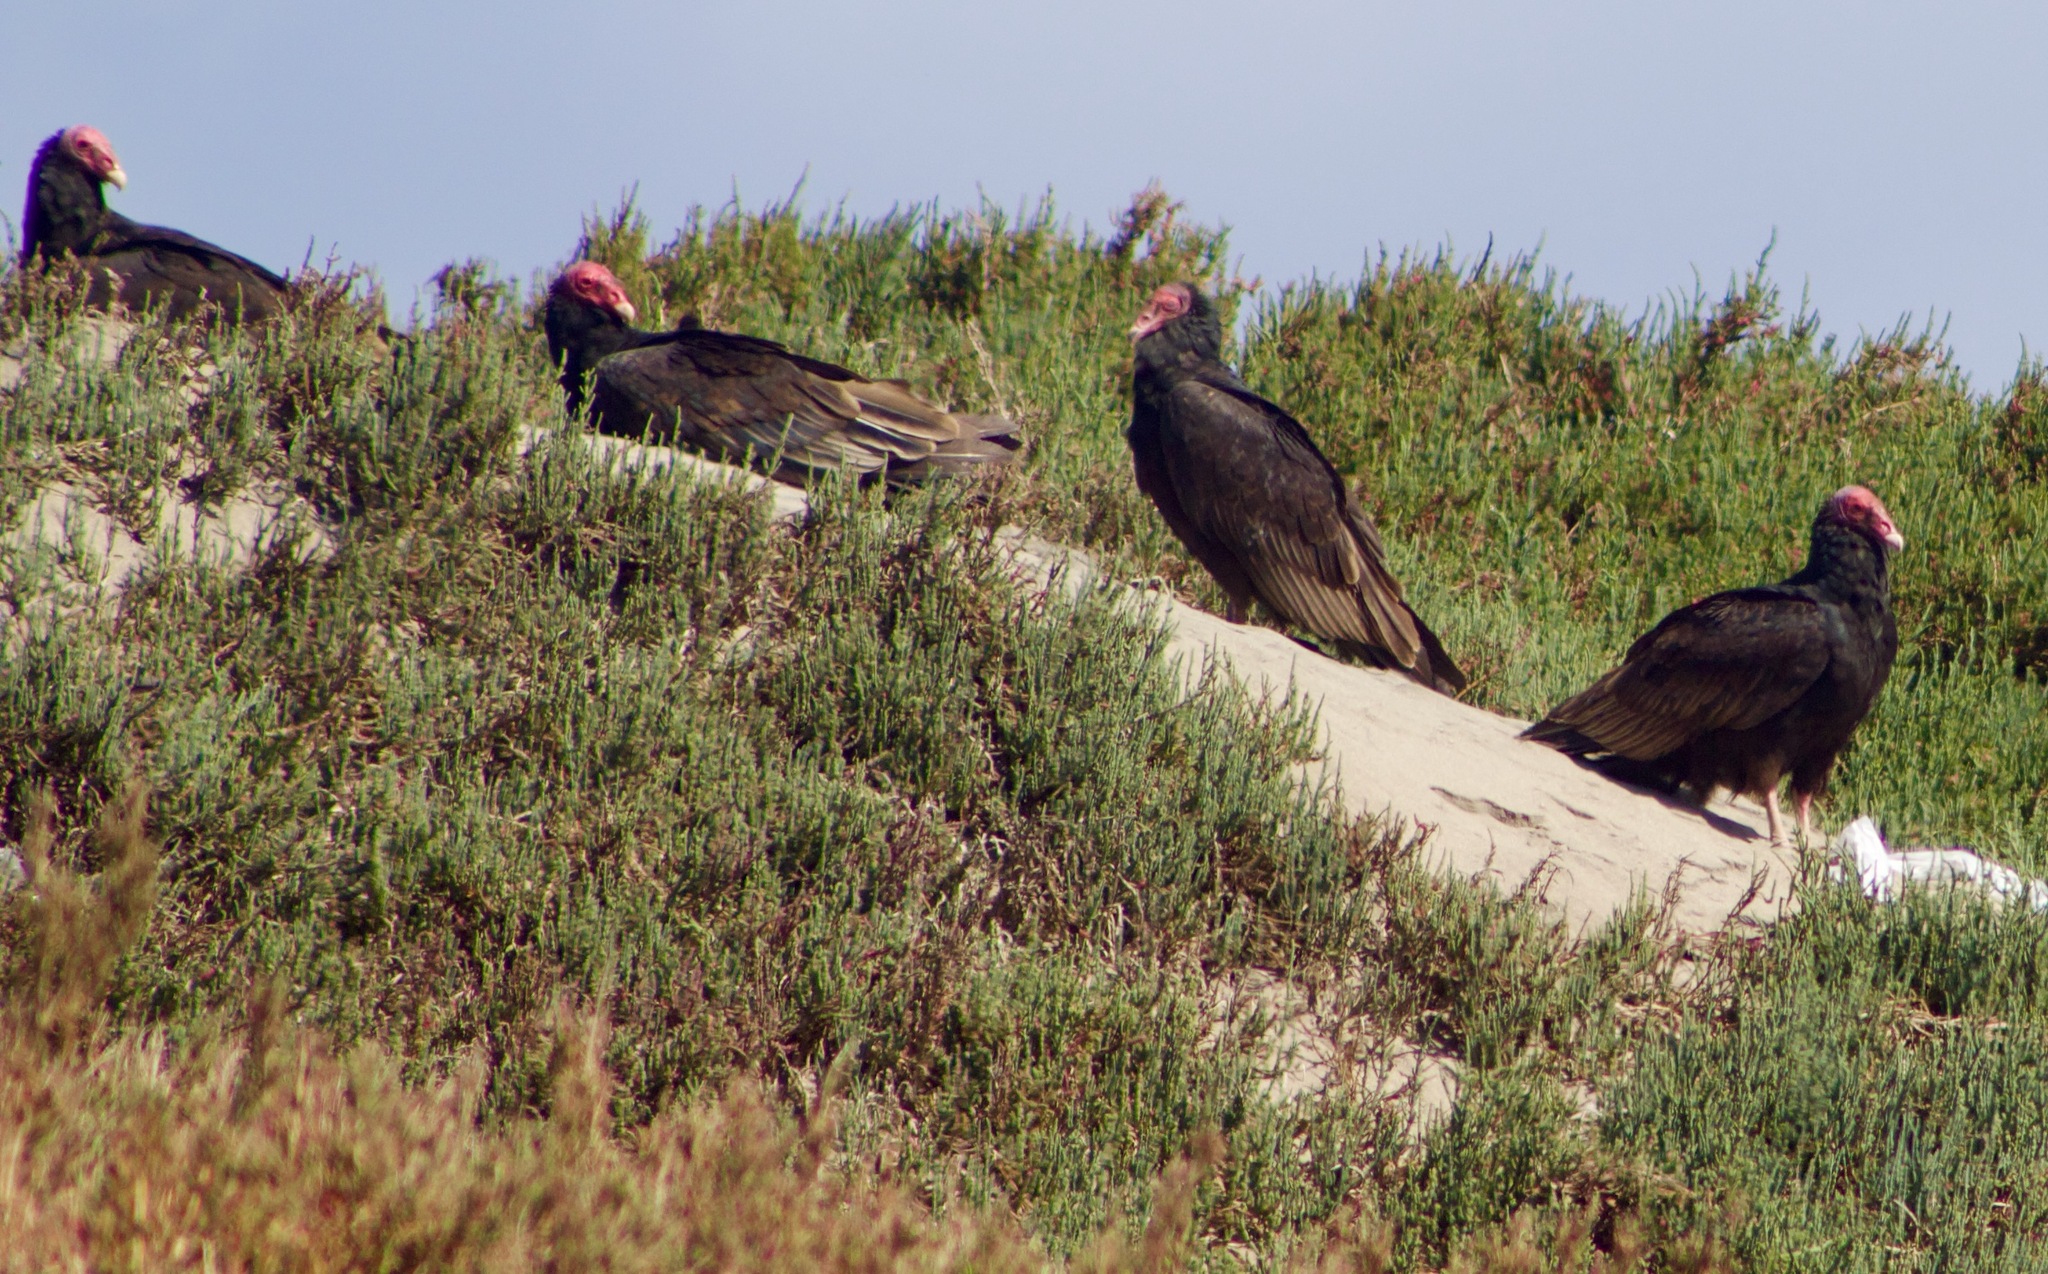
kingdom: Animalia
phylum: Chordata
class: Aves
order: Accipitriformes
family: Cathartidae
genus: Cathartes
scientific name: Cathartes aura
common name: Turkey vulture
